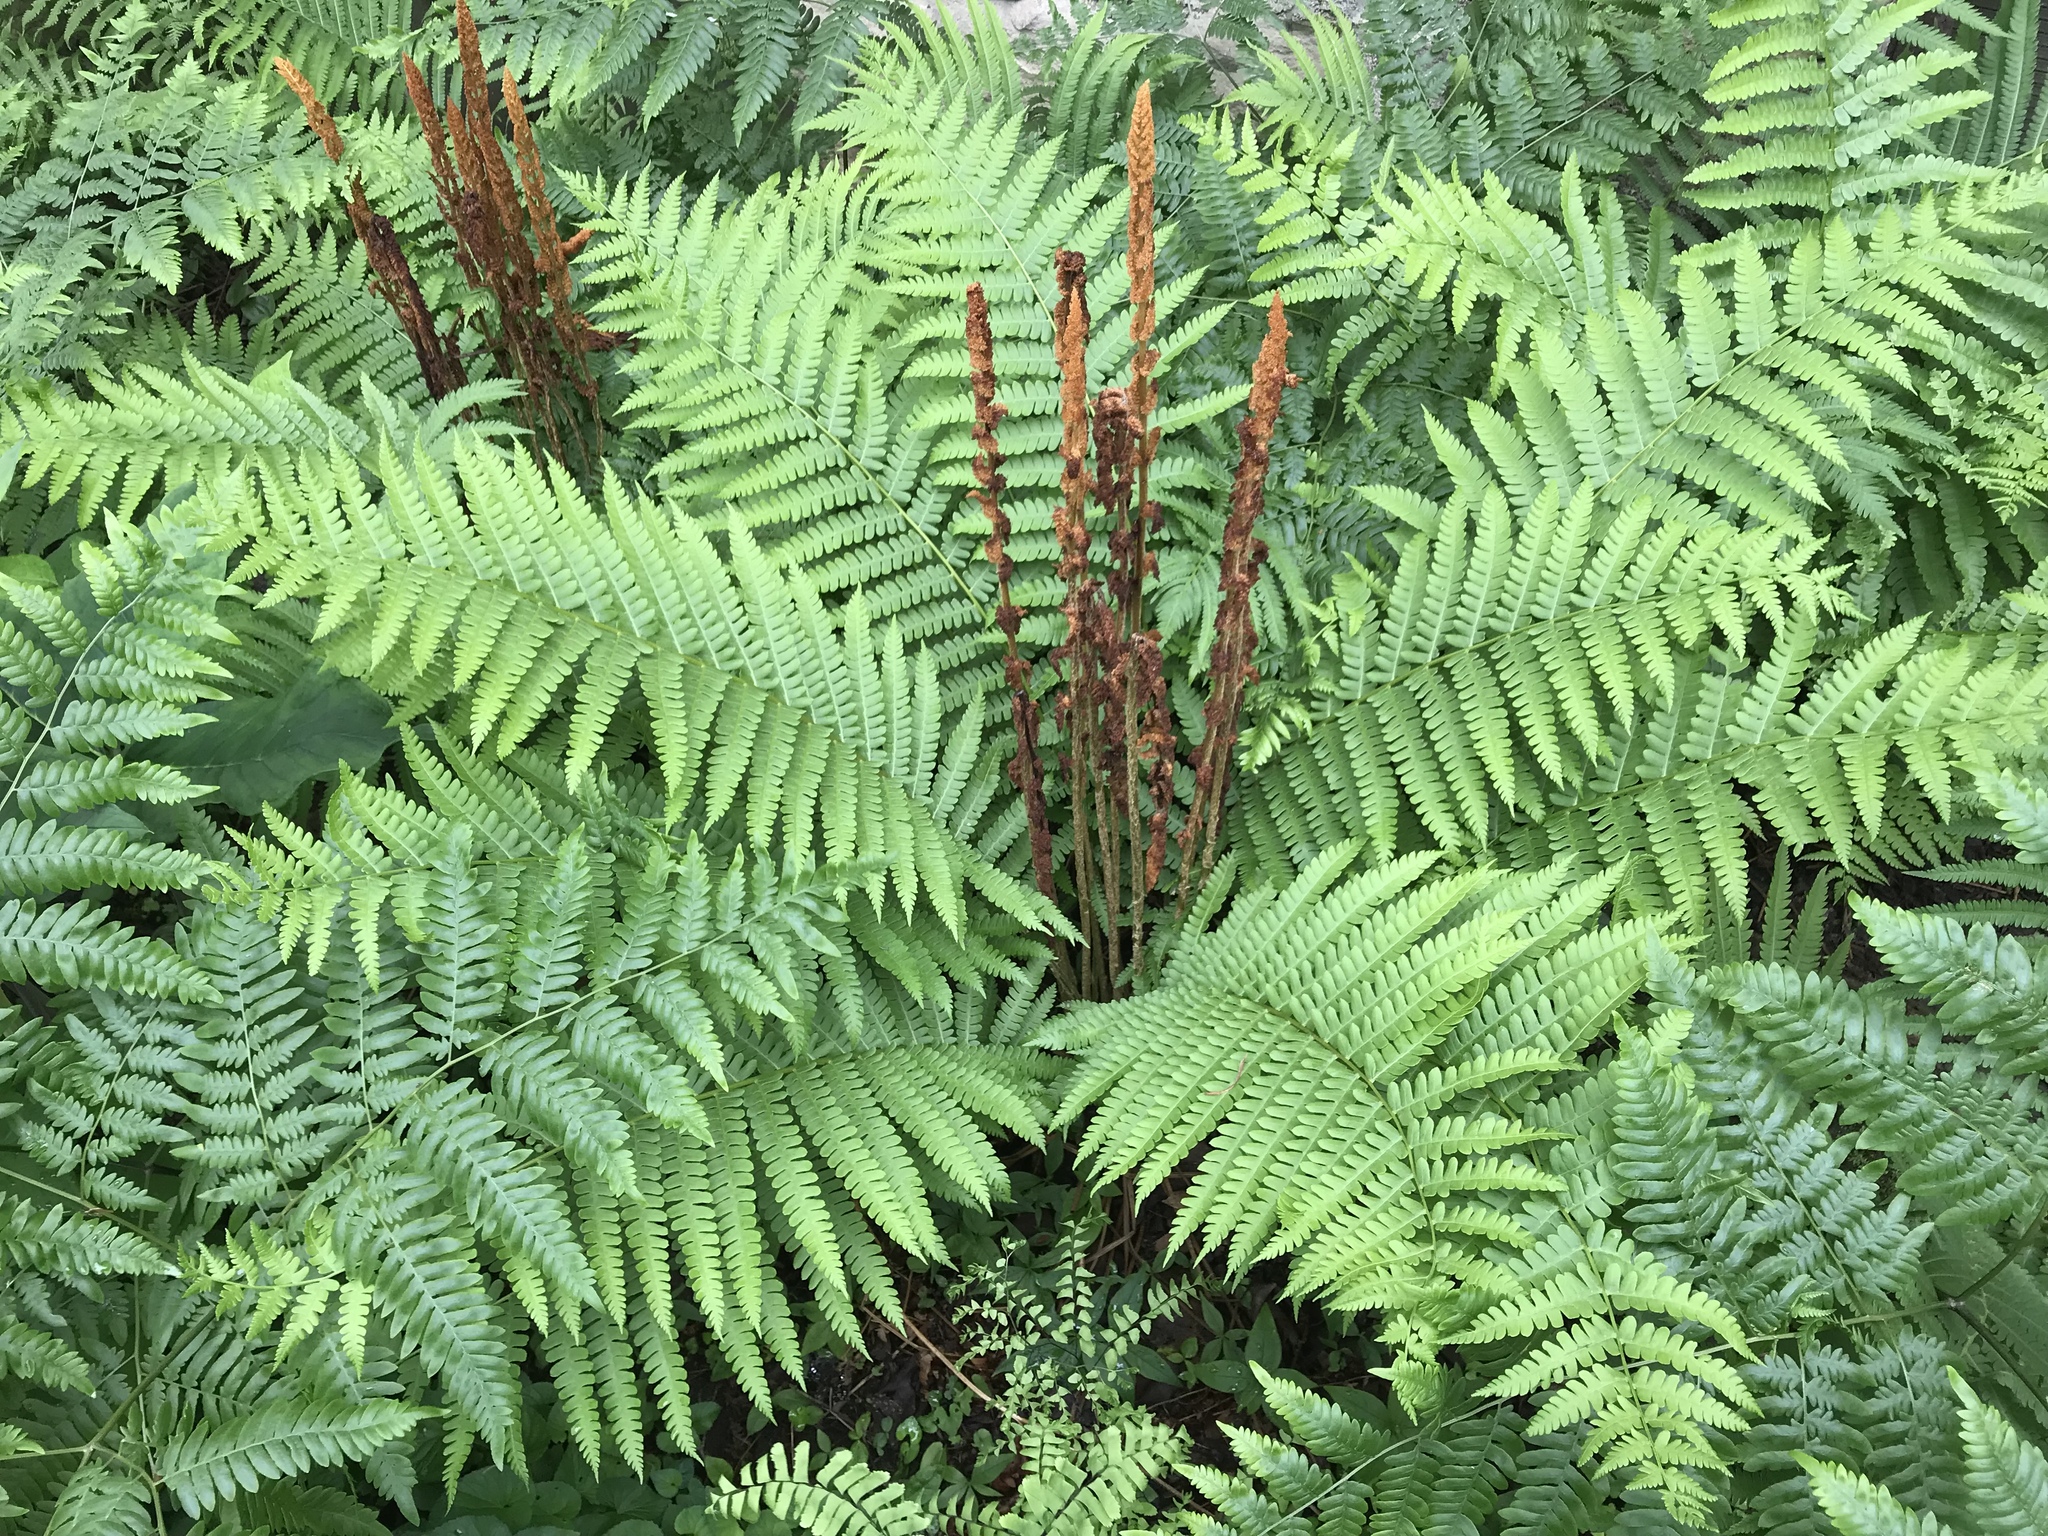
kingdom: Plantae
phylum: Tracheophyta
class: Polypodiopsida
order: Osmundales
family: Osmundaceae
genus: Osmundastrum
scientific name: Osmundastrum cinnamomeum
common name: Cinnamon fern
